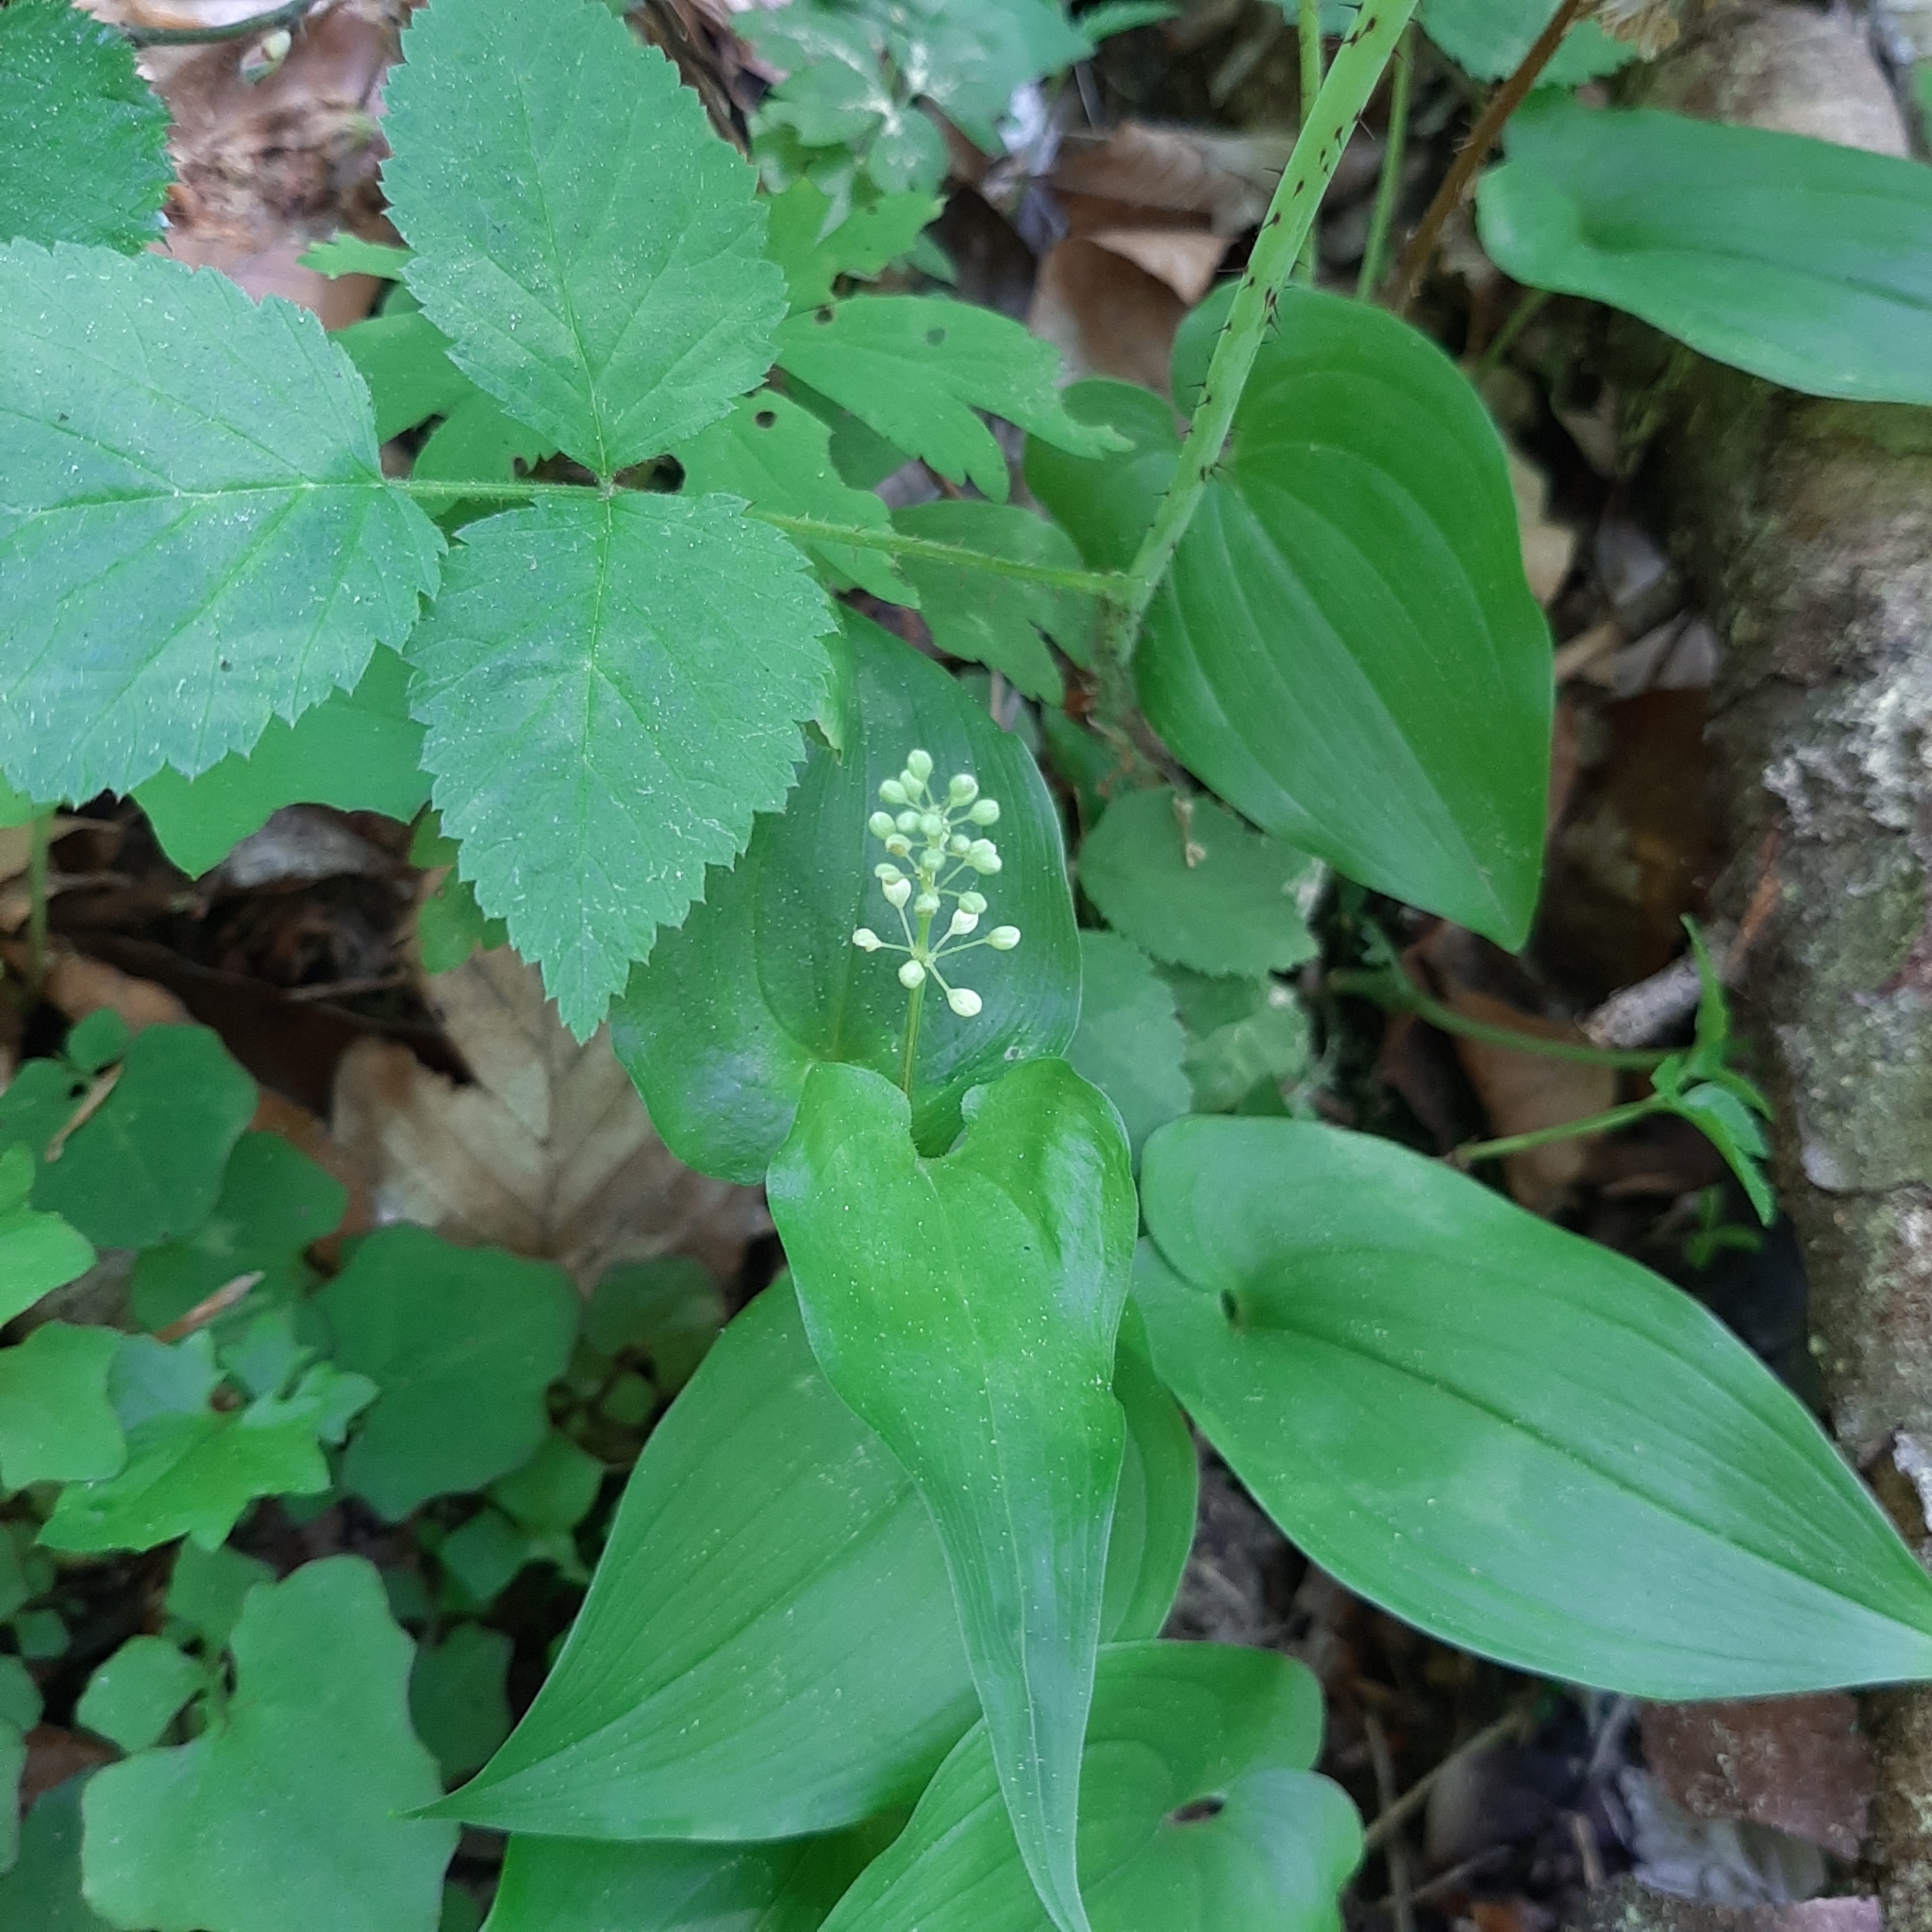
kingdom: Plantae
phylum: Tracheophyta
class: Liliopsida
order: Asparagales
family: Asparagaceae
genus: Maianthemum
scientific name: Maianthemum bifolium
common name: May lily
